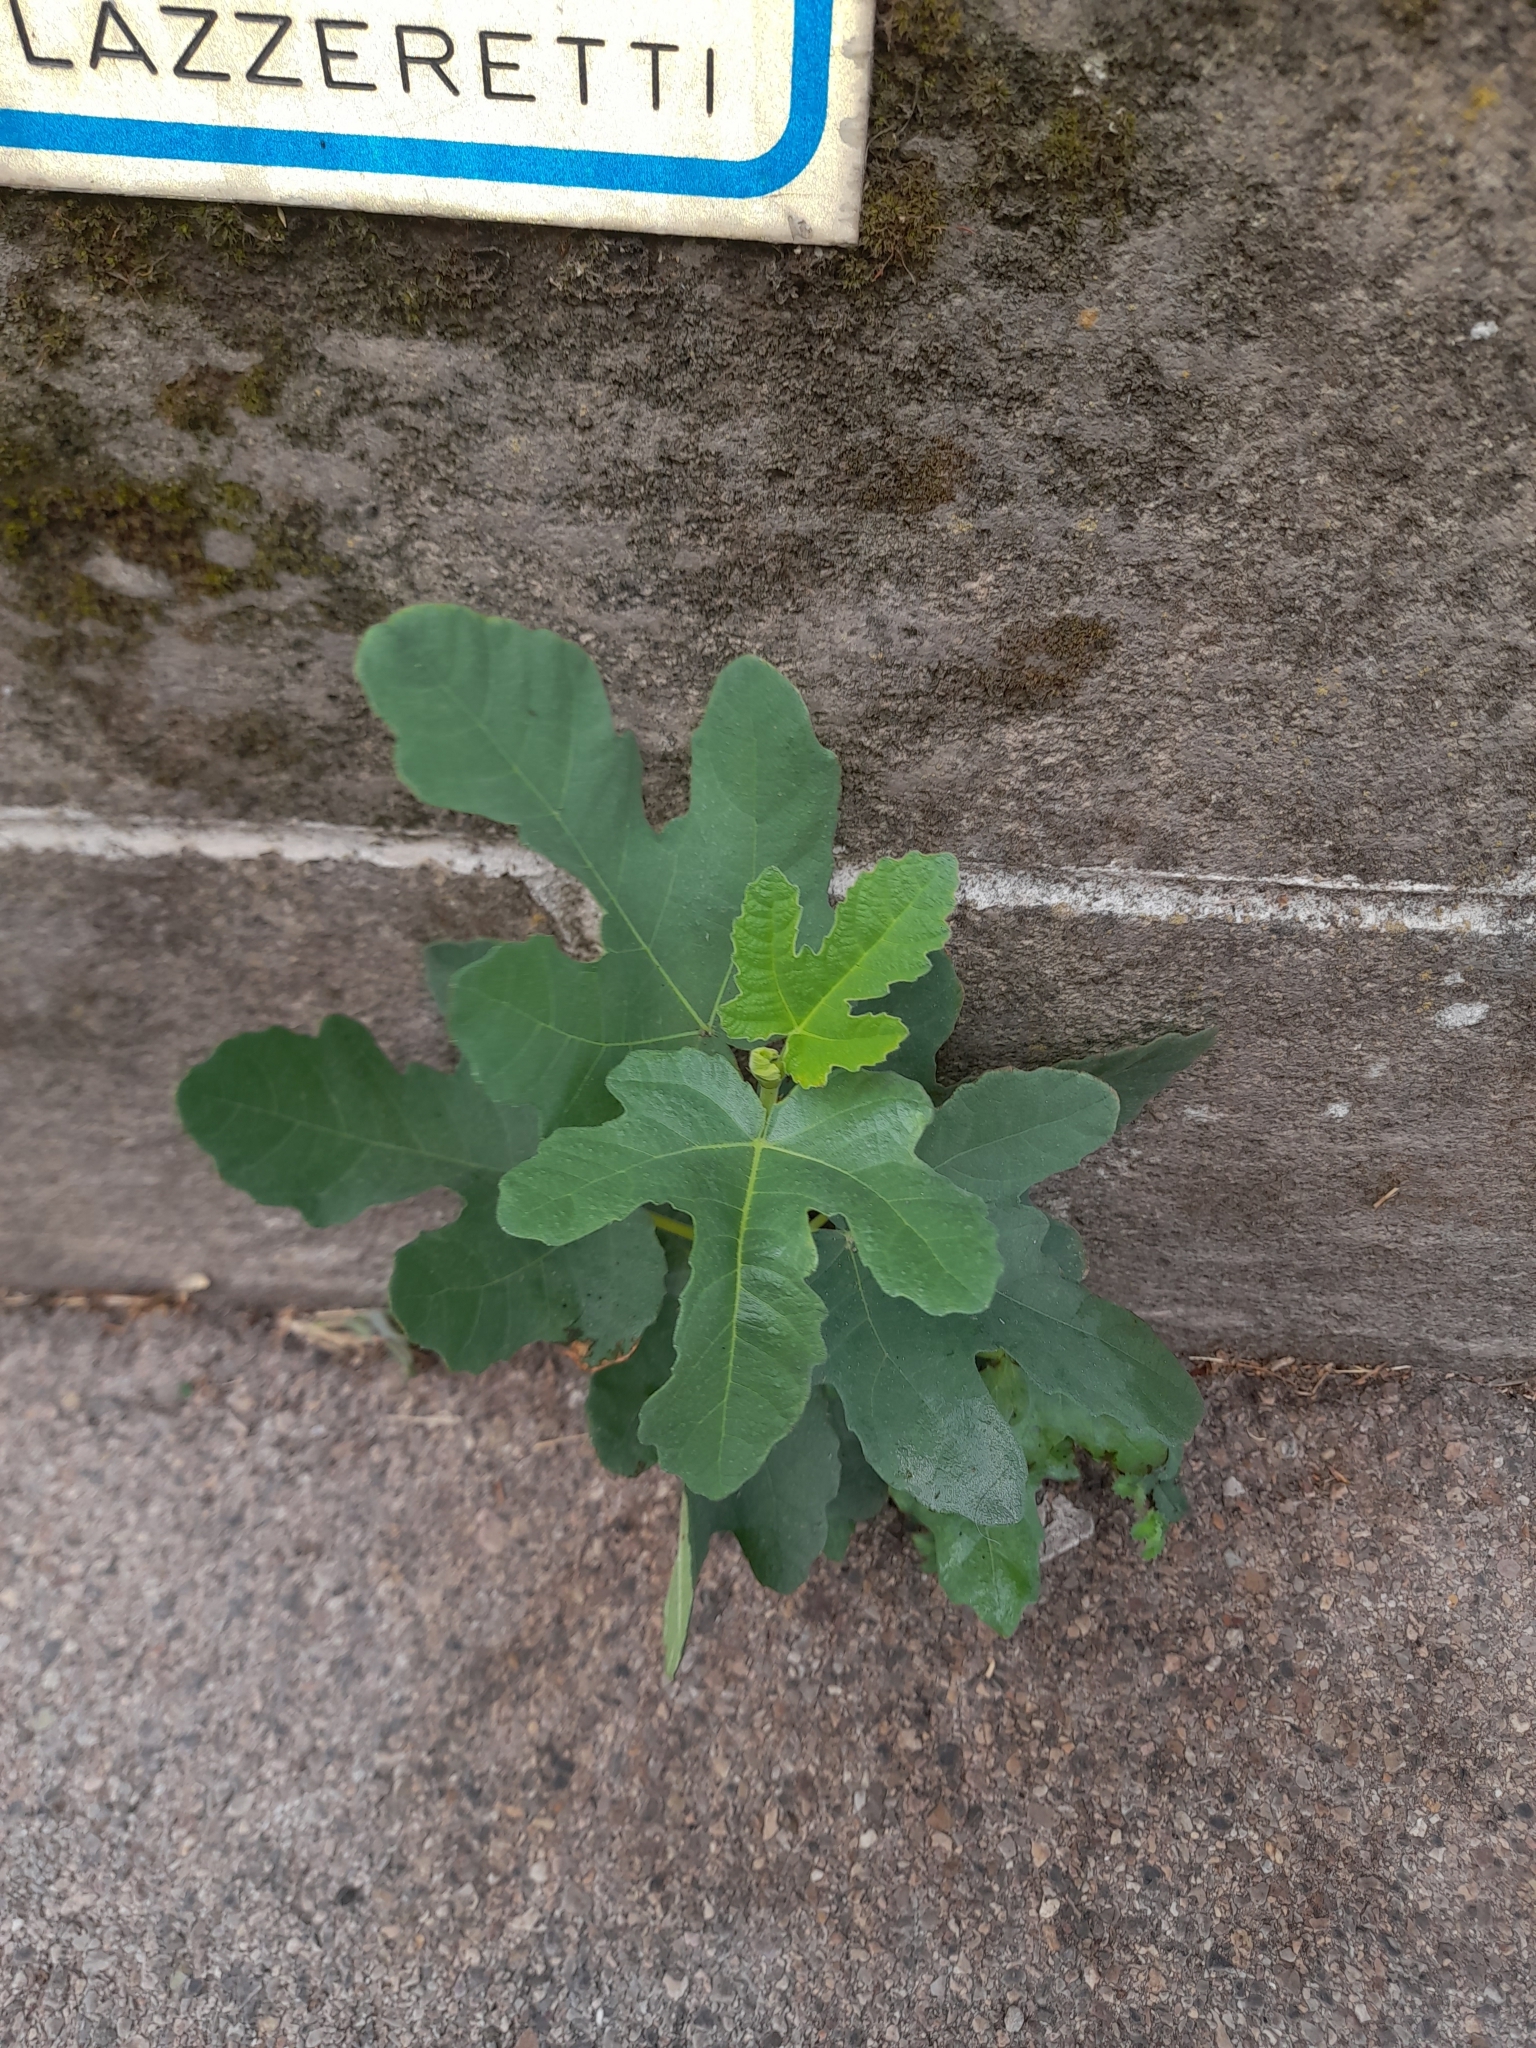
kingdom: Plantae
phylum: Tracheophyta
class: Magnoliopsida
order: Rosales
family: Moraceae
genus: Ficus
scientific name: Ficus carica
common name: Fig
